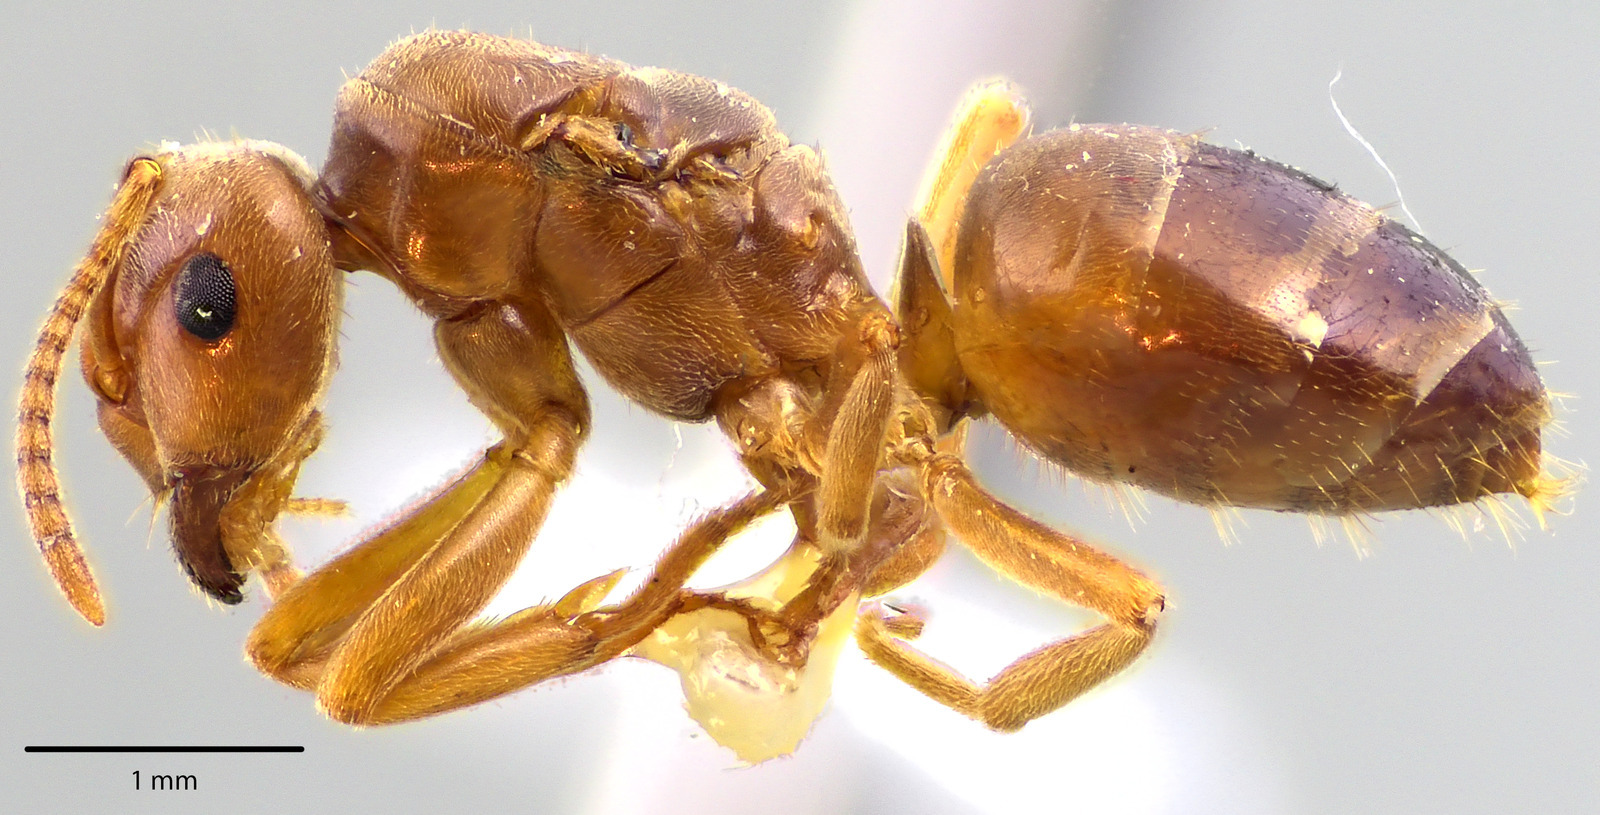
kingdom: Animalia
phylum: Arthropoda
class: Insecta
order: Hymenoptera
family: Formicidae
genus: Lasius
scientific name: Lasius speculiventris
